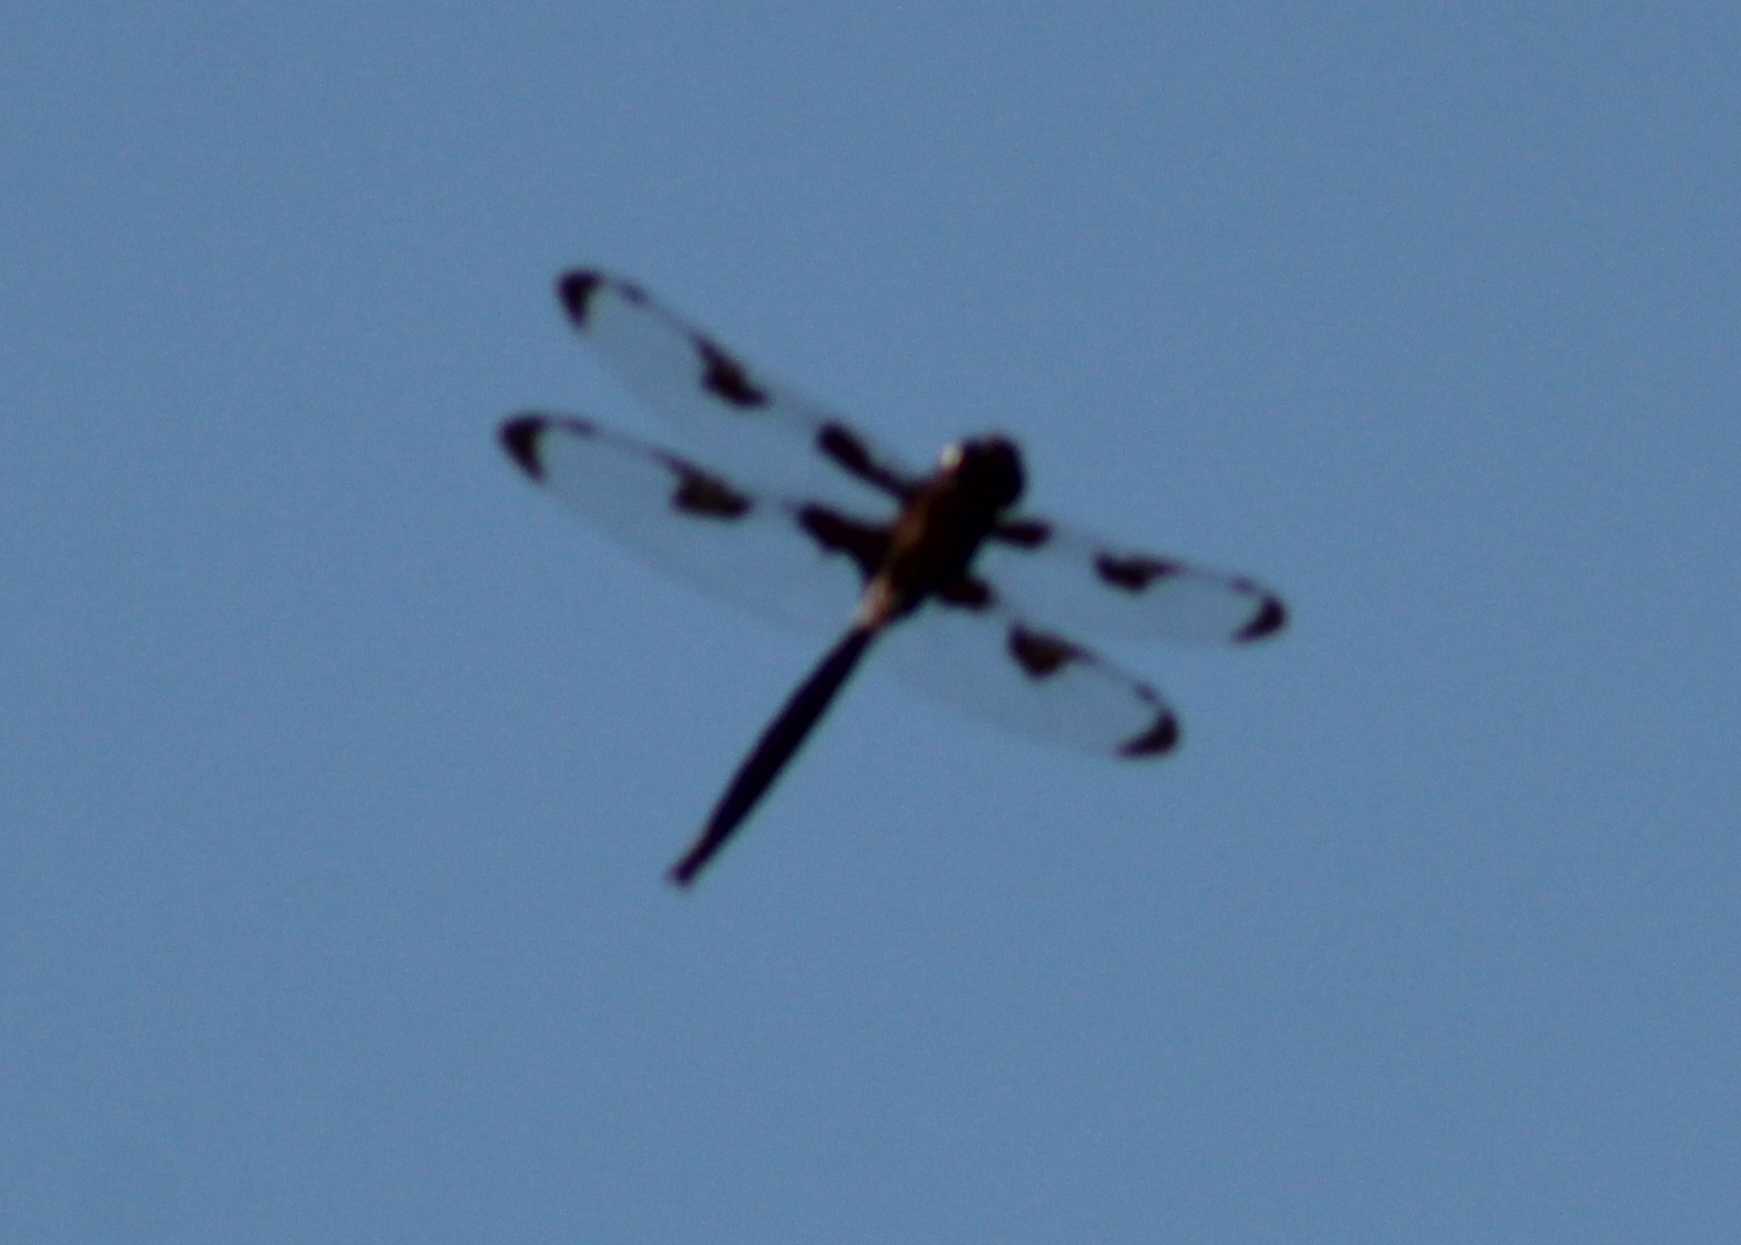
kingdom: Animalia
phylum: Arthropoda
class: Insecta
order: Odonata
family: Corduliidae
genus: Epitheca
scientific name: Epitheca princeps
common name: Prince baskettail
